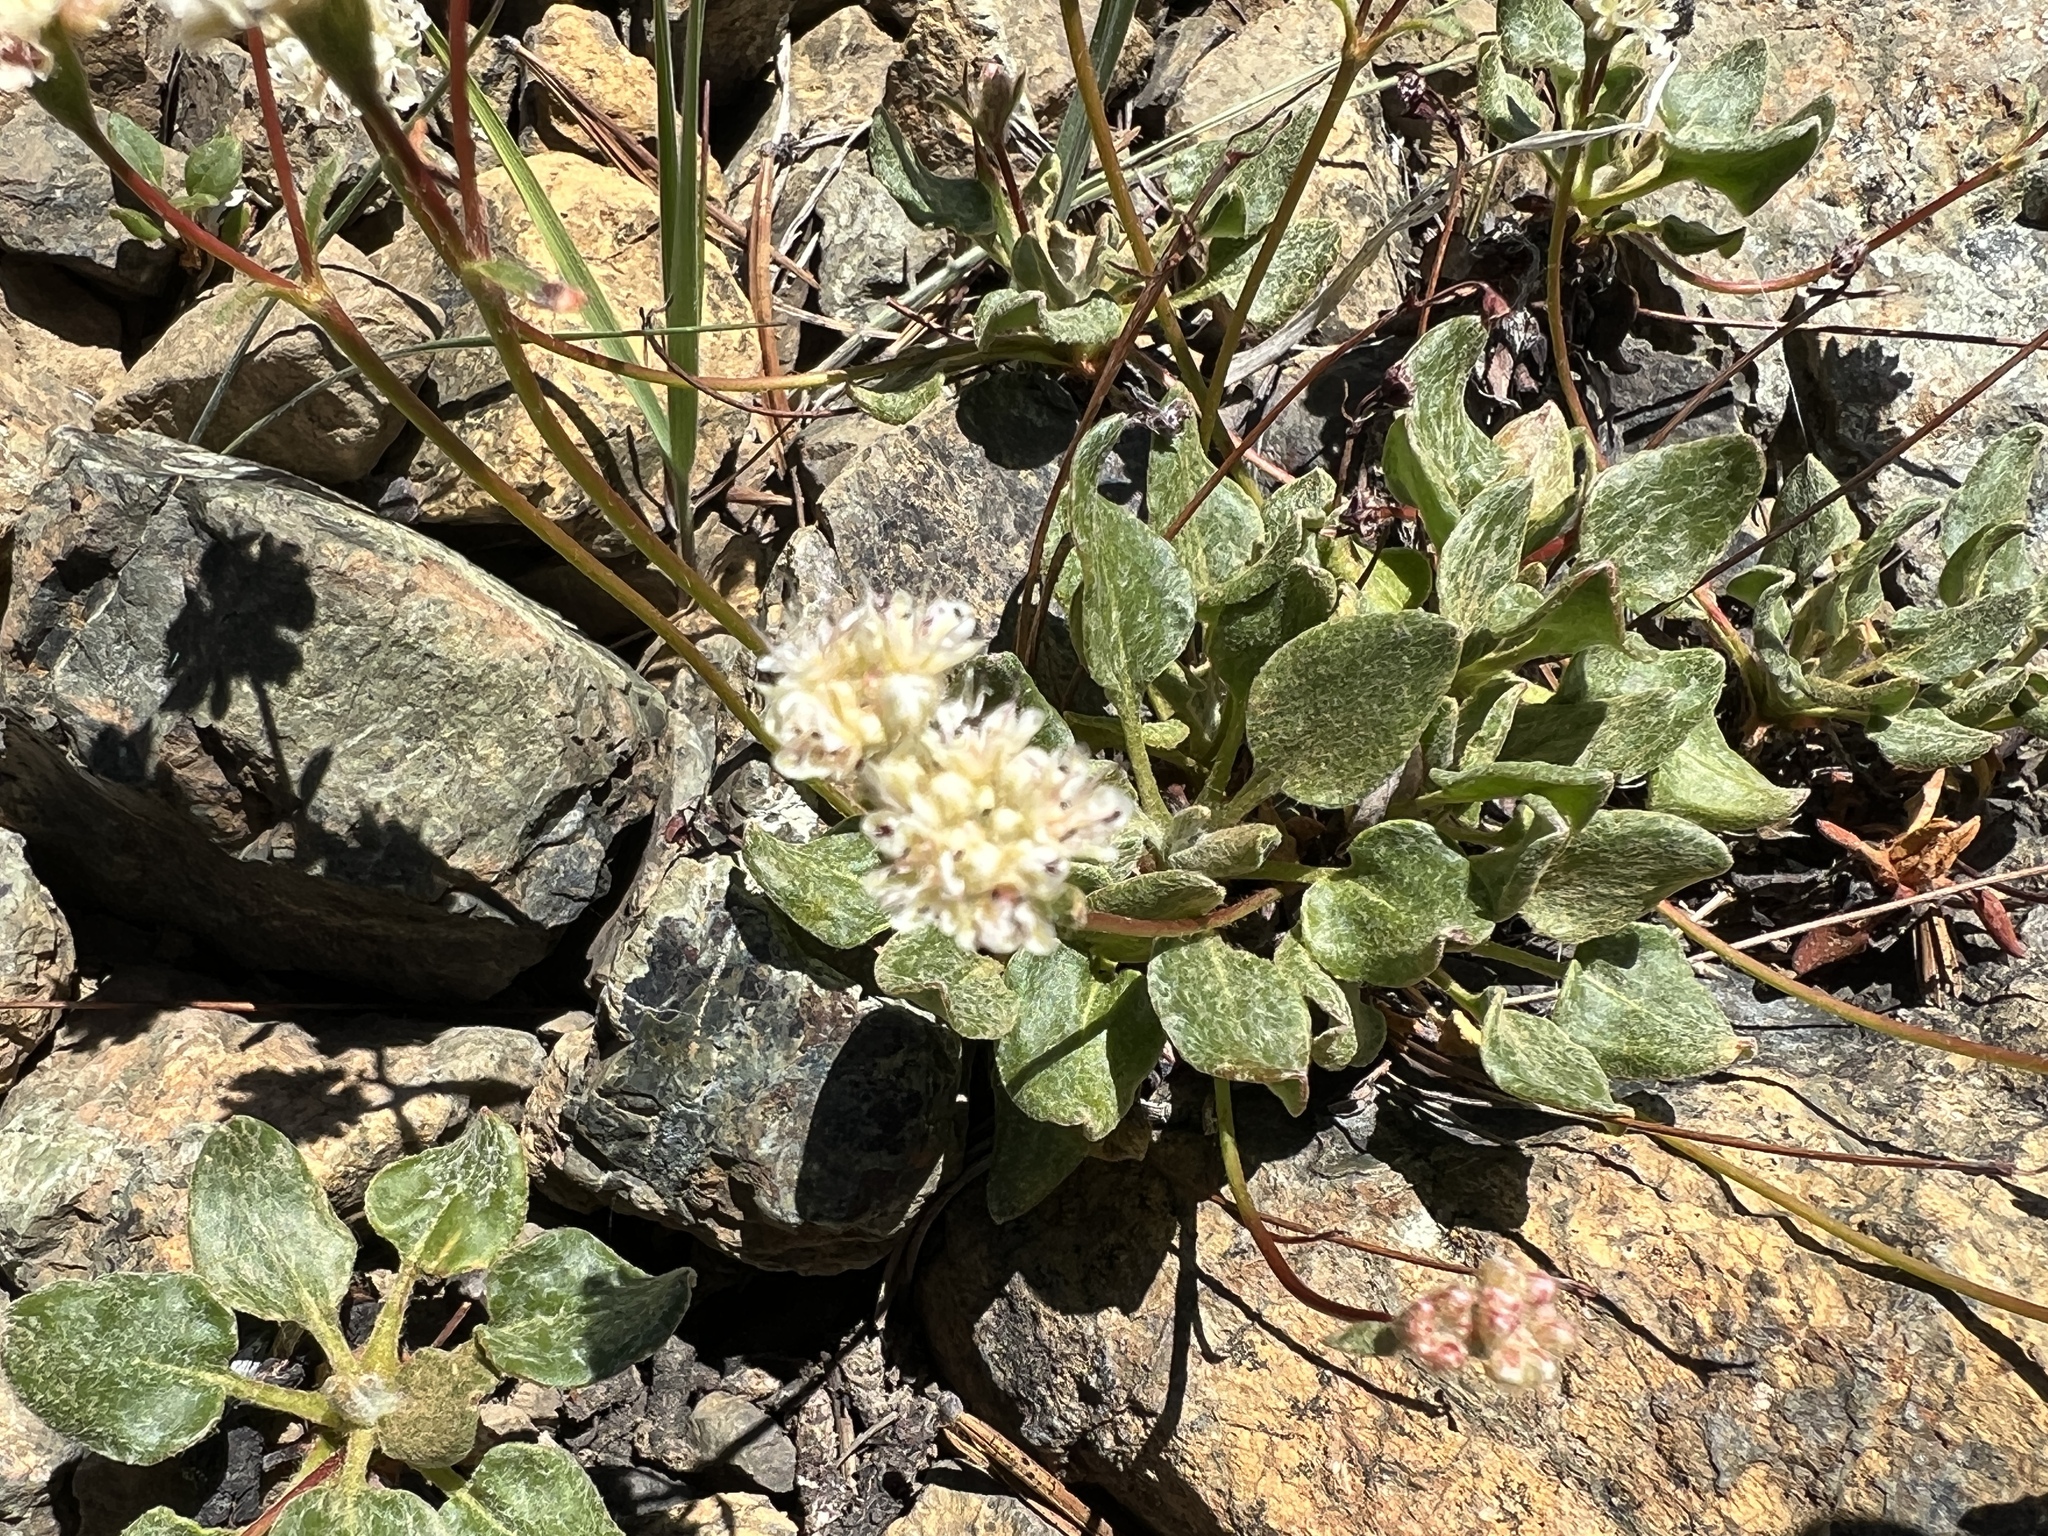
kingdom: Plantae
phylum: Tracheophyta
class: Magnoliopsida
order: Caryophyllales
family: Polygonaceae
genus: Eriogonum
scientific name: Eriogonum pyrolifolium
